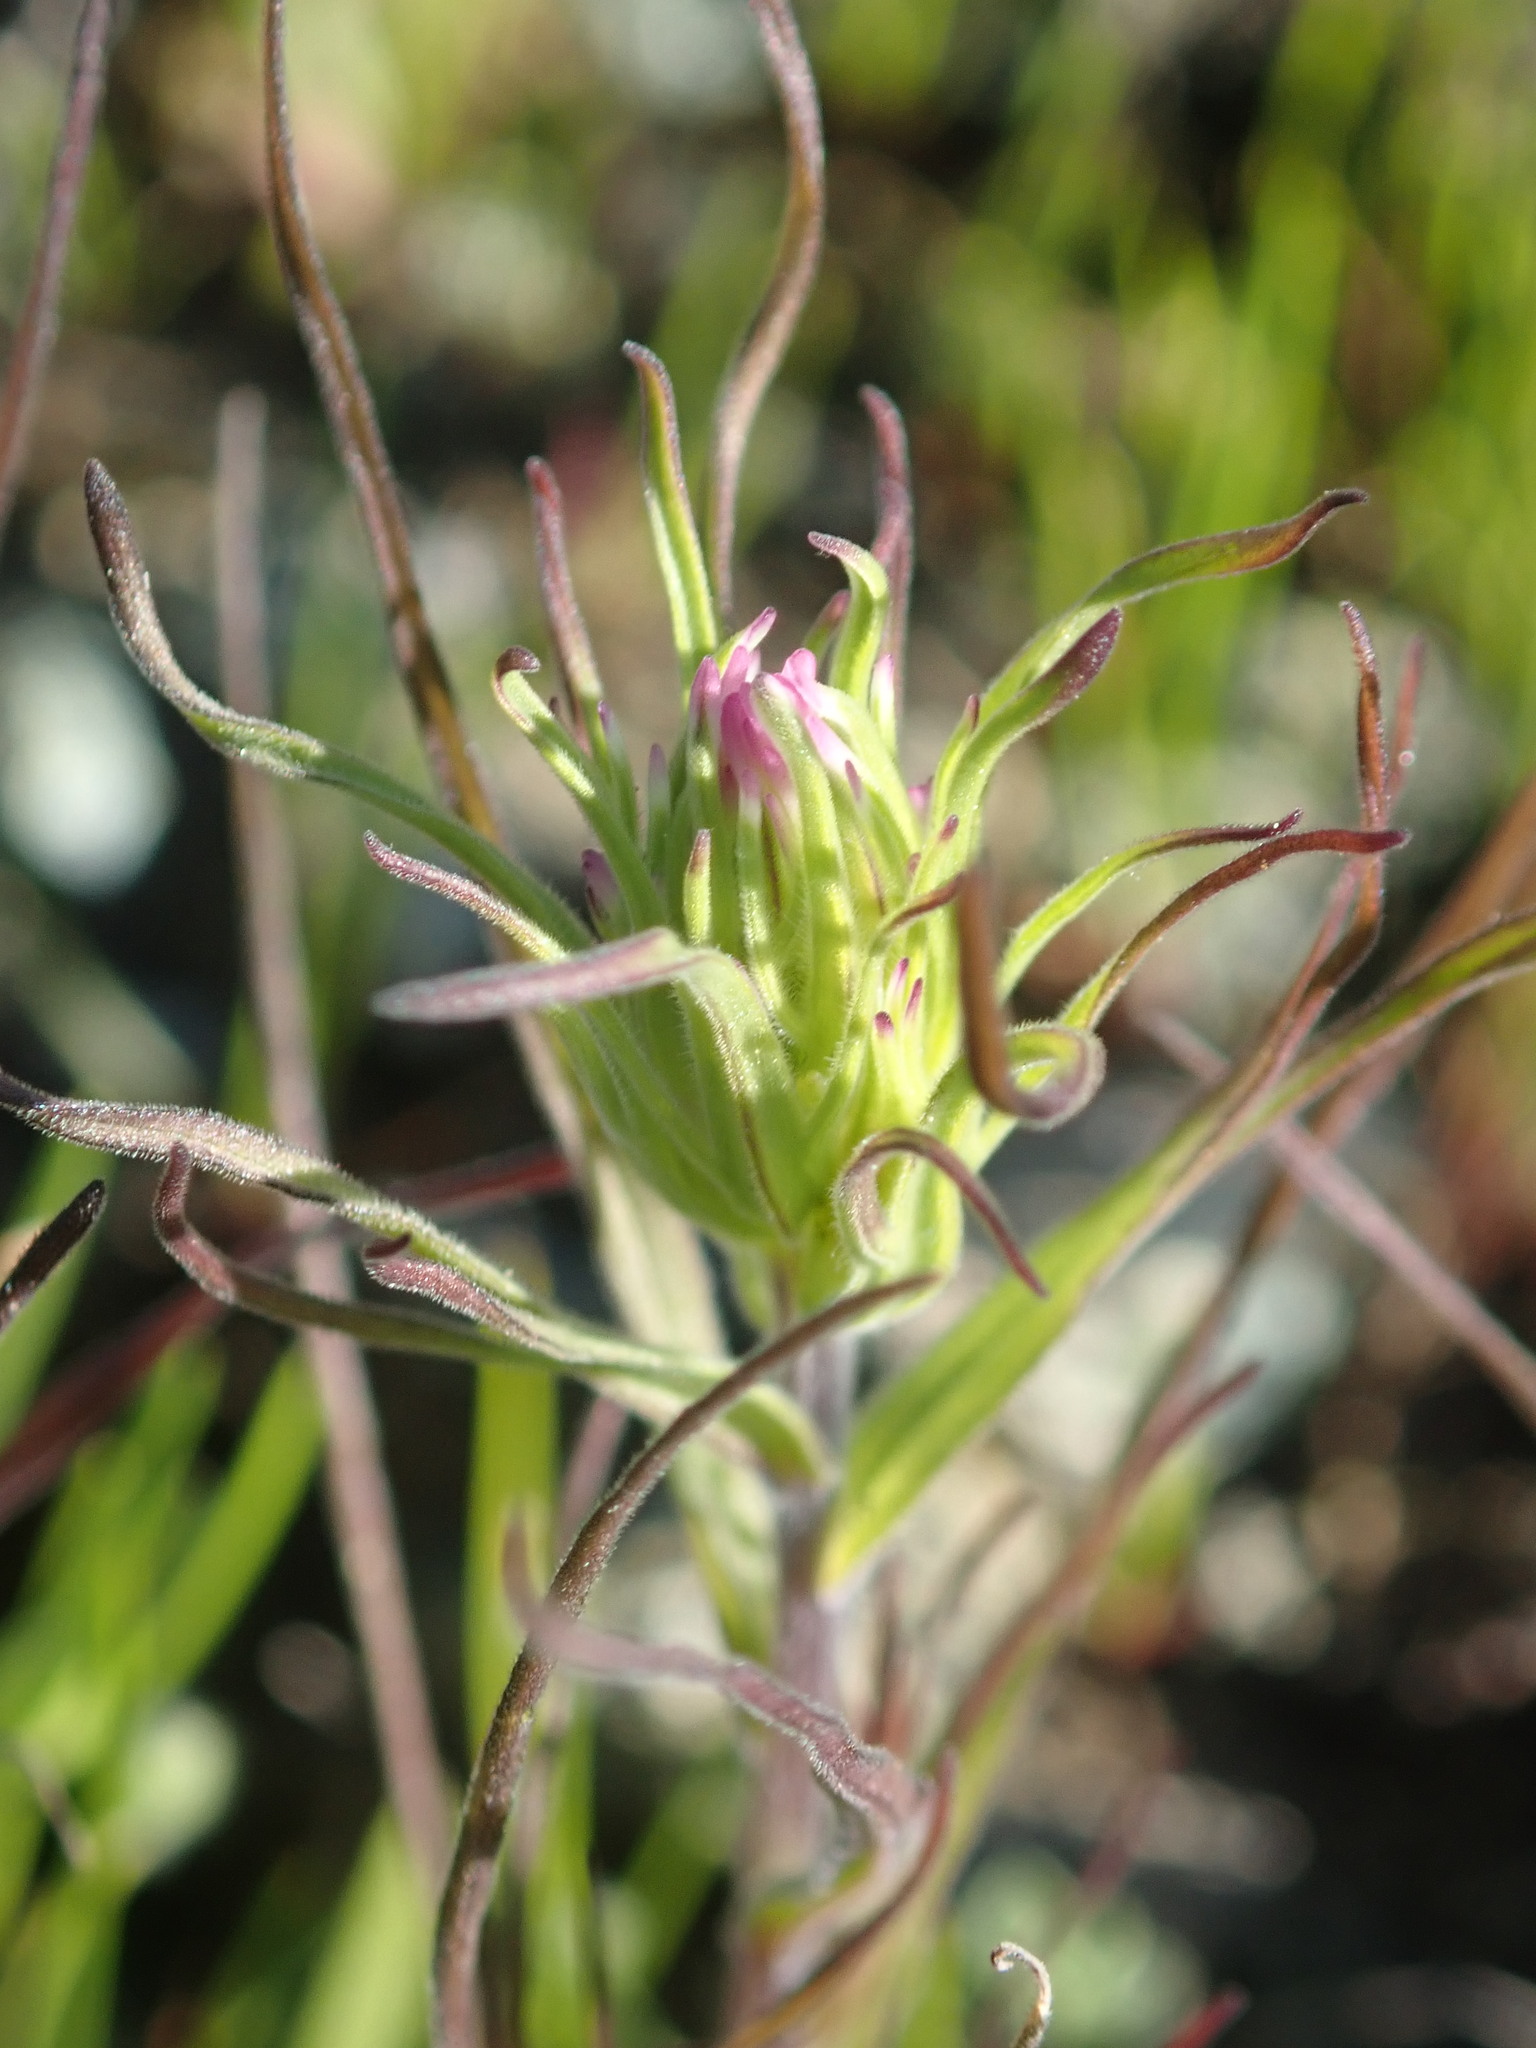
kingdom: Plantae
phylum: Tracheophyta
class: Magnoliopsida
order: Lamiales
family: Orobanchaceae
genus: Castilleja
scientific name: Castilleja densiflora
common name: Dense-flower indian paintbrush
